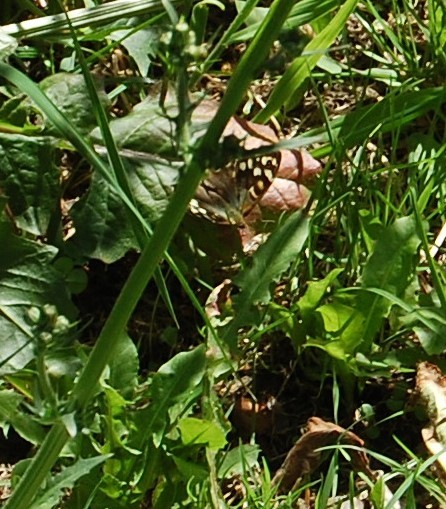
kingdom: Animalia
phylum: Arthropoda
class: Insecta
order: Lepidoptera
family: Nymphalidae
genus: Pararge
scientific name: Pararge aegeria
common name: Speckled wood
